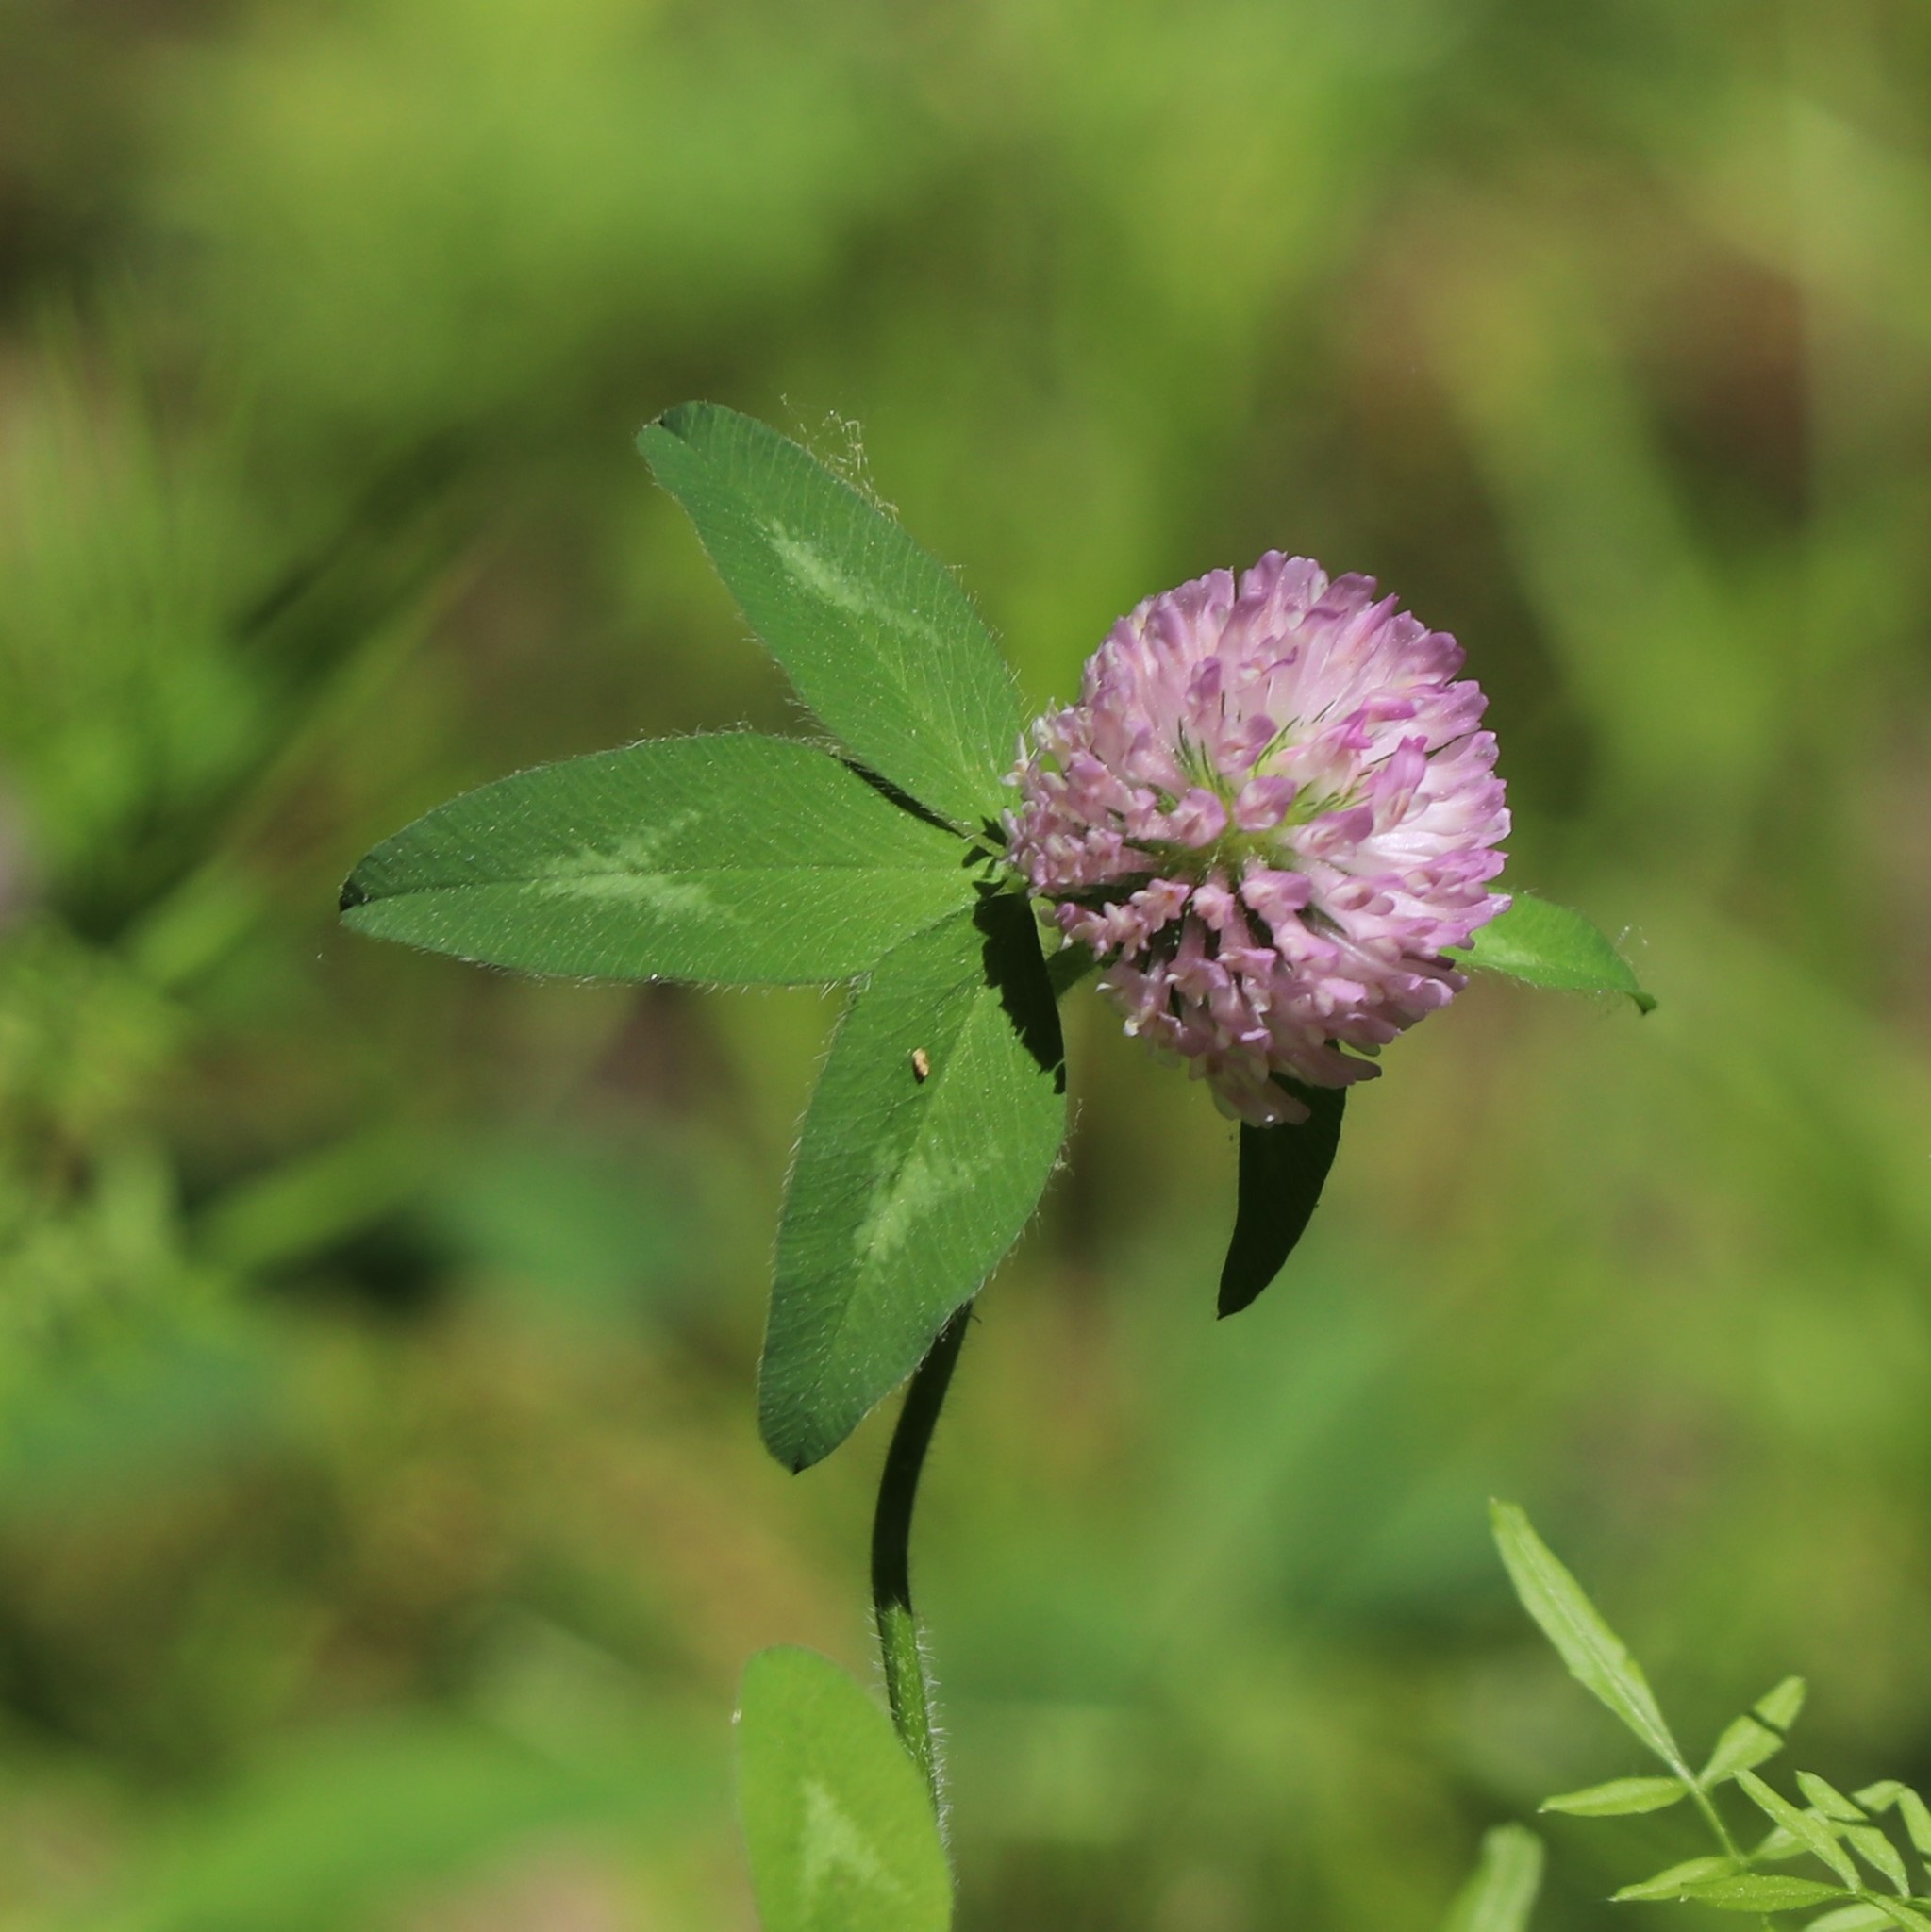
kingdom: Plantae
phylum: Tracheophyta
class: Magnoliopsida
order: Fabales
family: Fabaceae
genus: Trifolium
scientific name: Trifolium pratense
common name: Red clover
